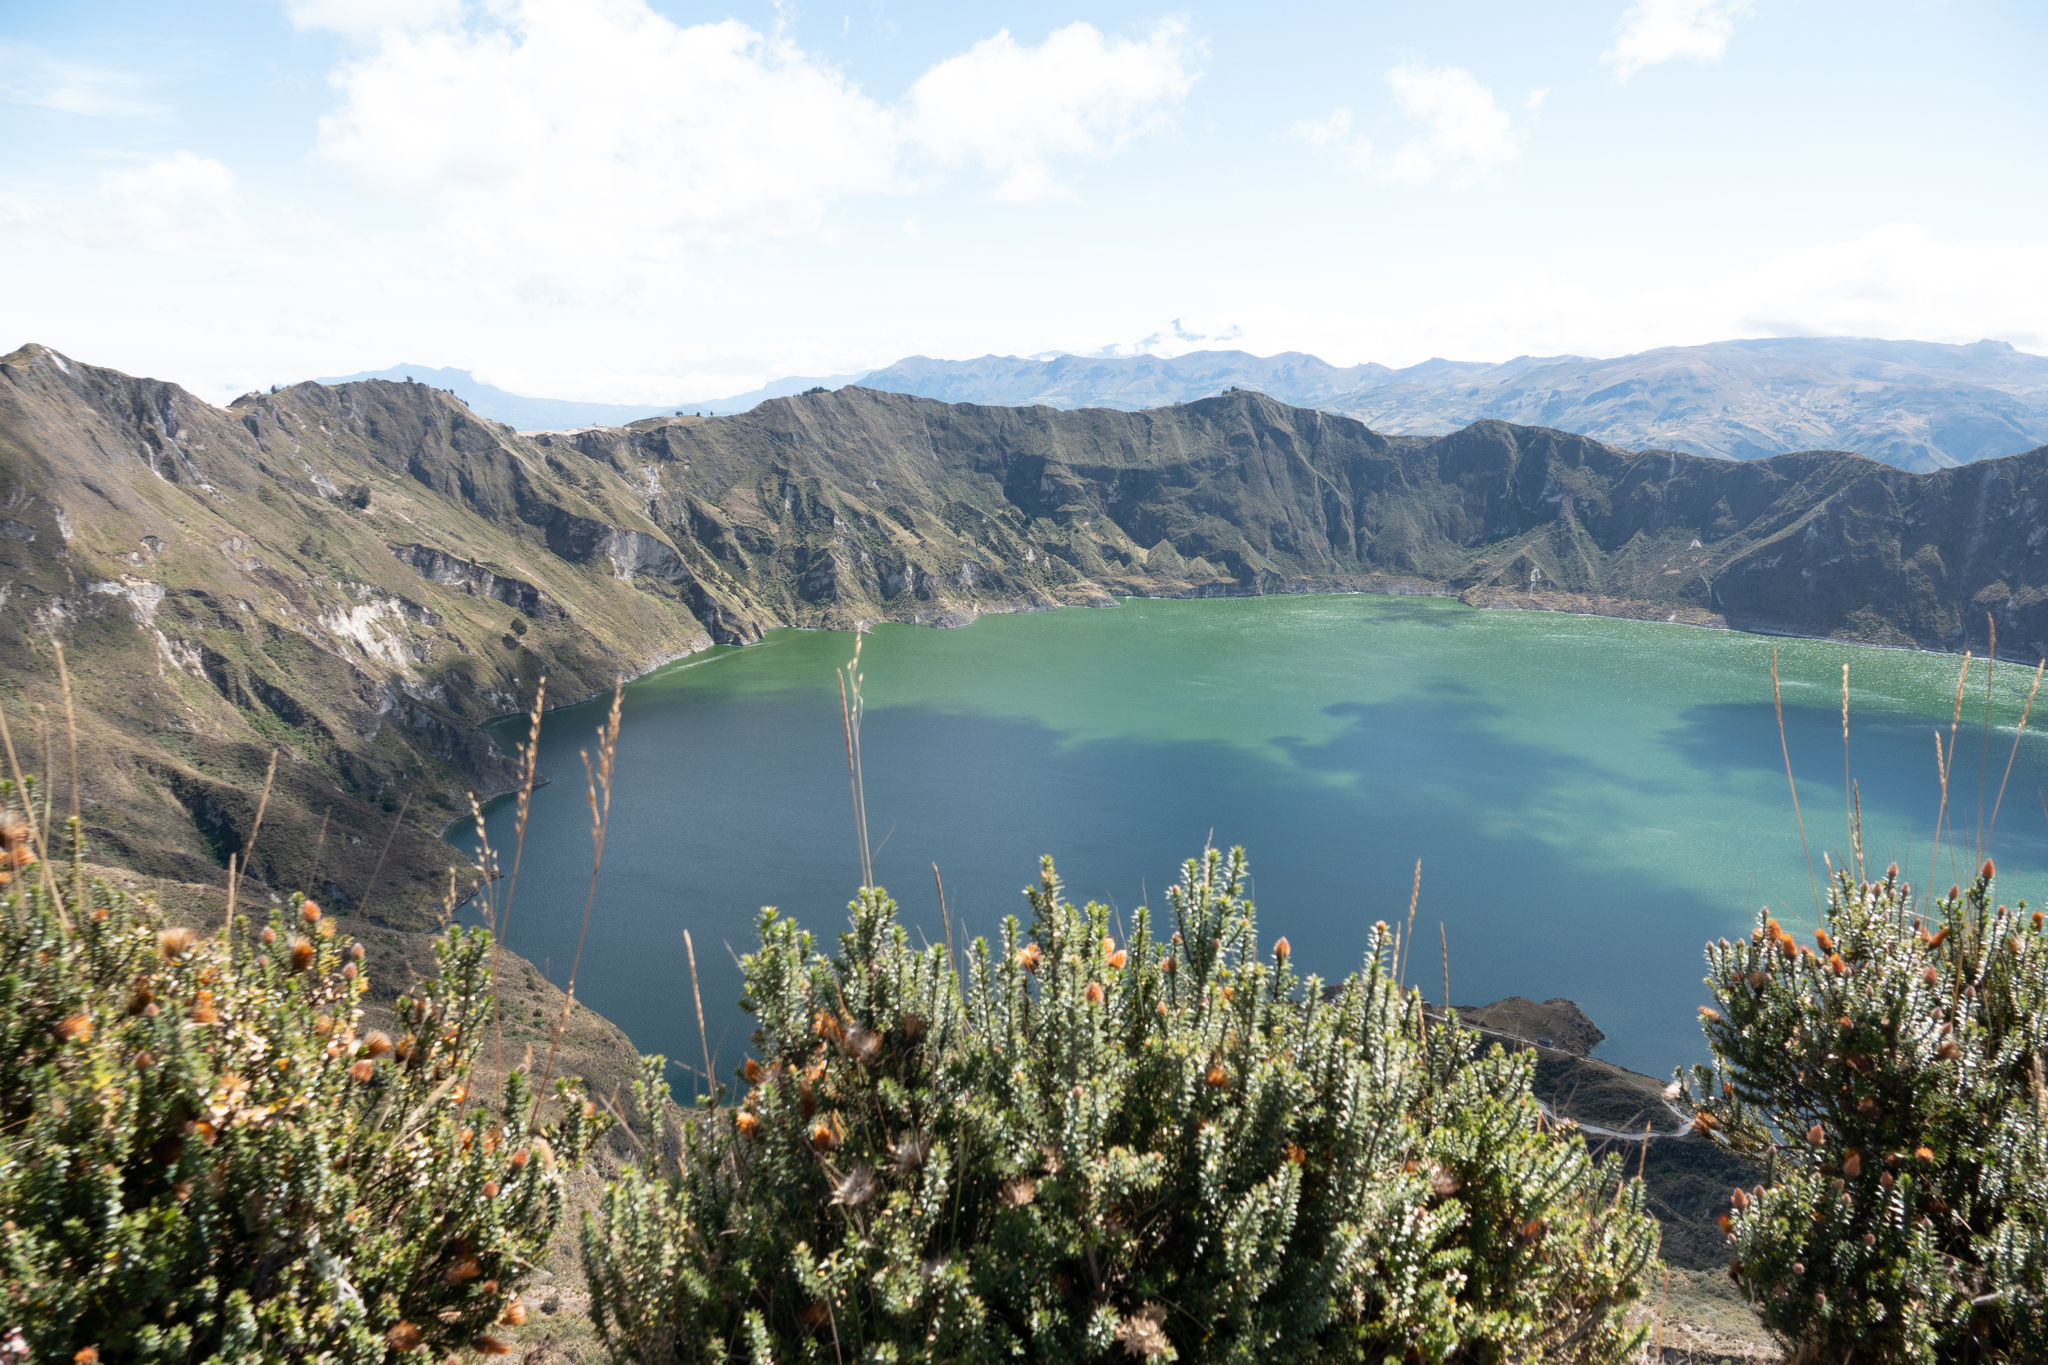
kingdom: Plantae
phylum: Tracheophyta
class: Magnoliopsida
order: Asterales
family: Asteraceae
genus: Chuquiraga
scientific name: Chuquiraga jussieui
